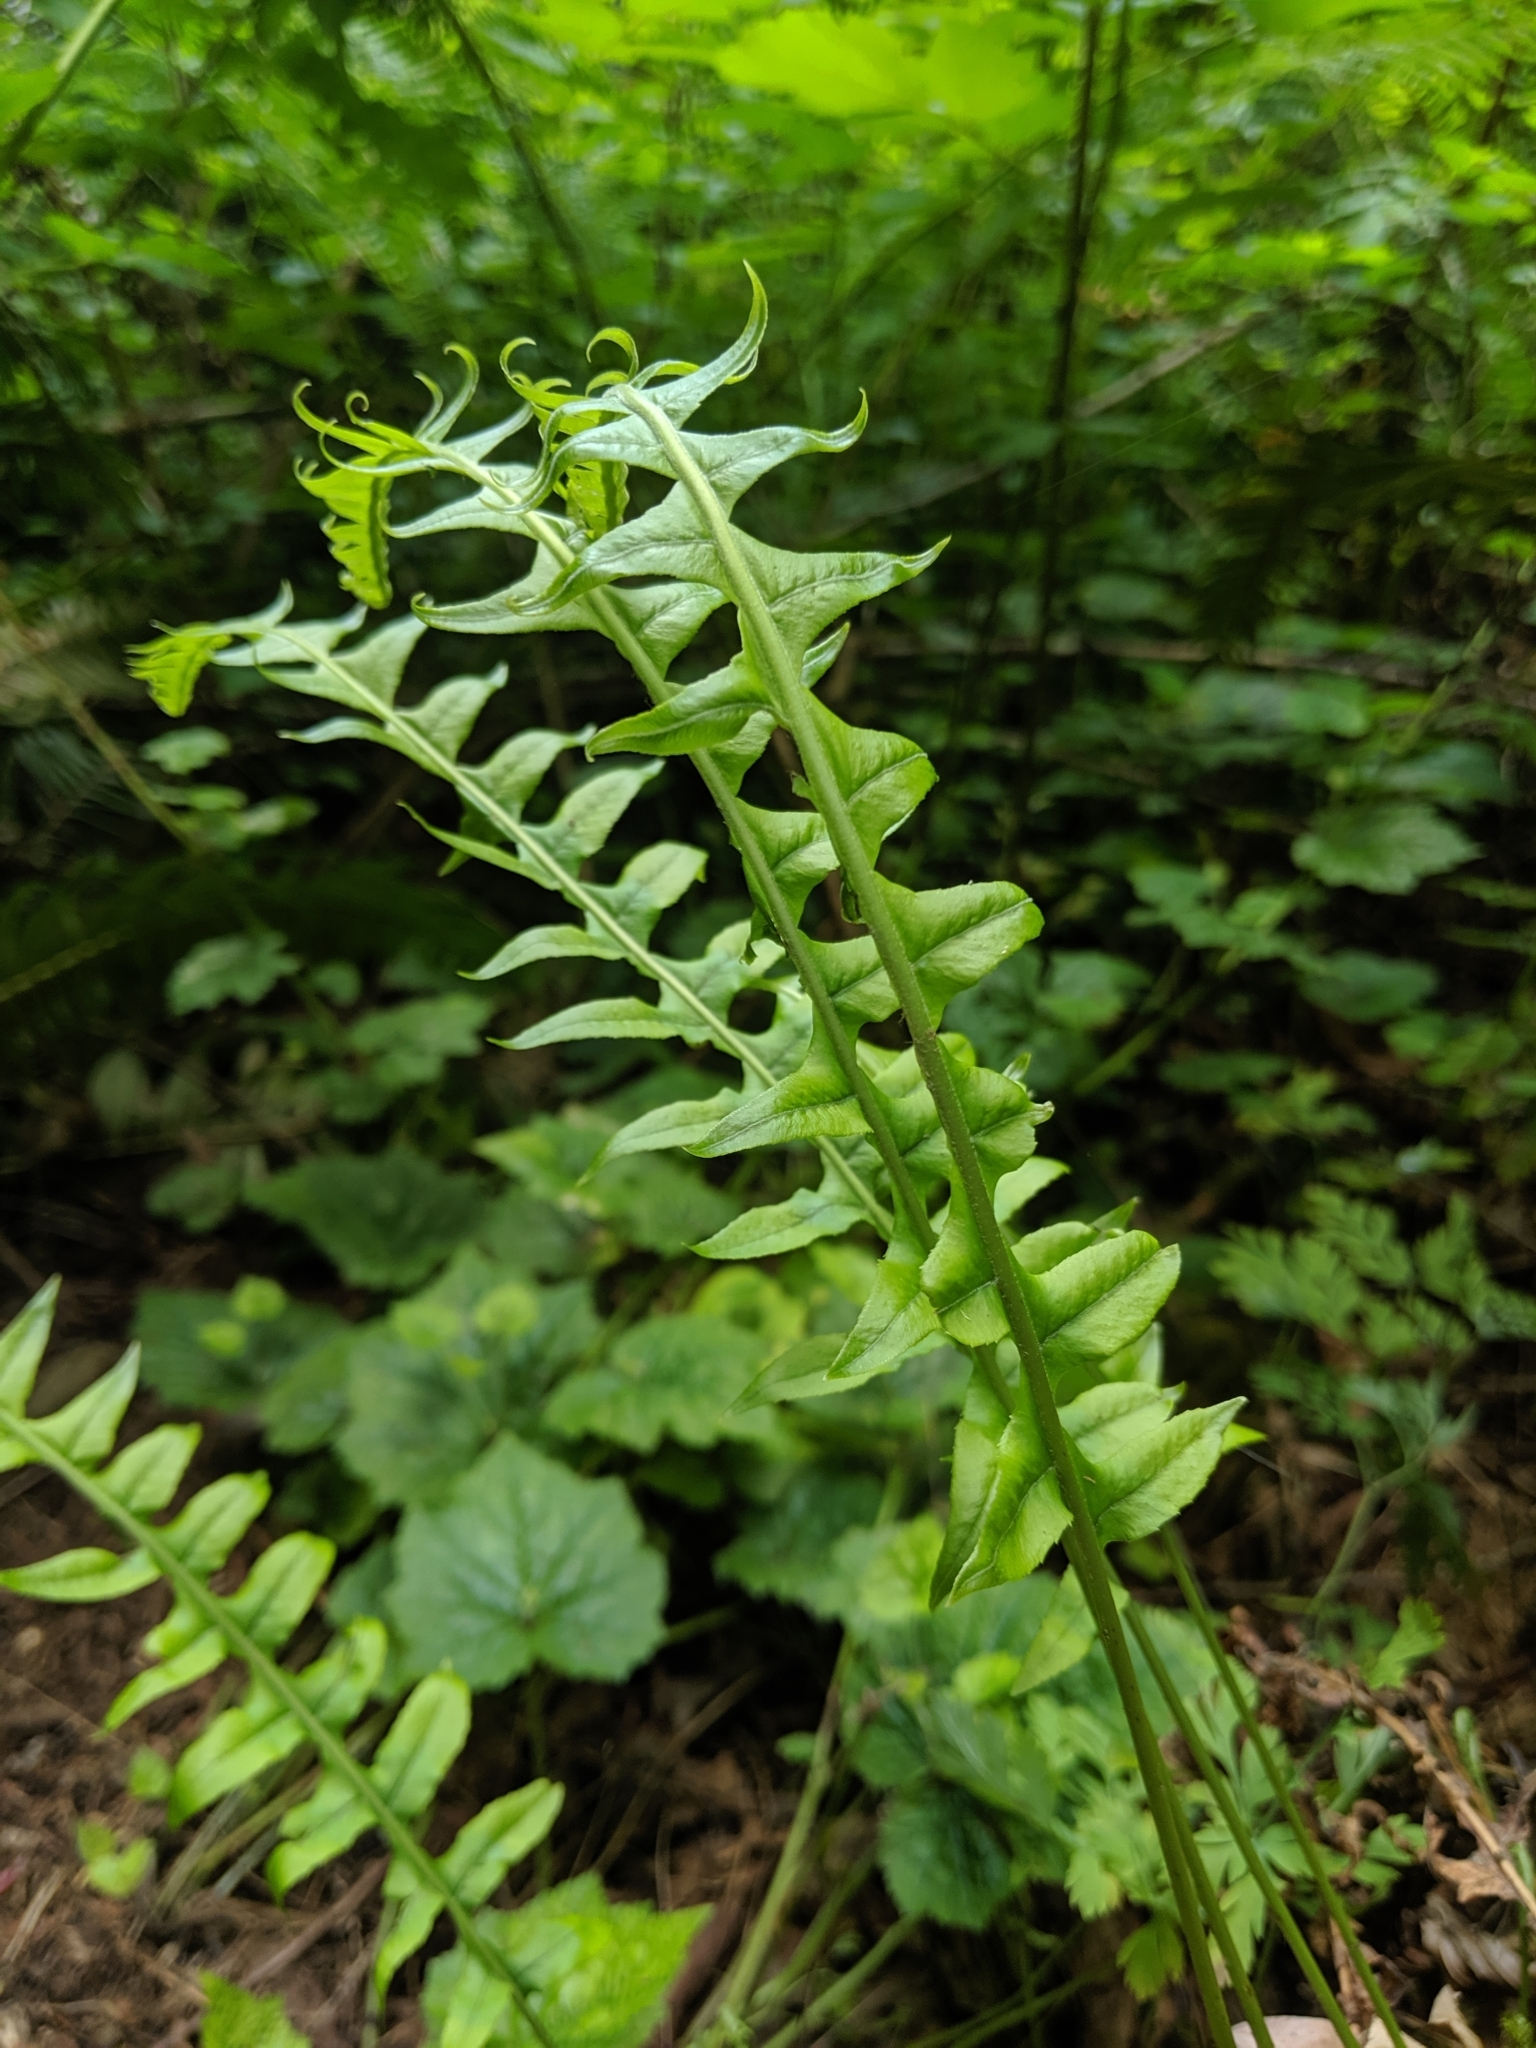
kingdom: Plantae
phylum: Tracheophyta
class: Polypodiopsida
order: Polypodiales
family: Polypodiaceae
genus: Polypodium
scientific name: Polypodium glycyrrhiza
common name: Licorice fern
